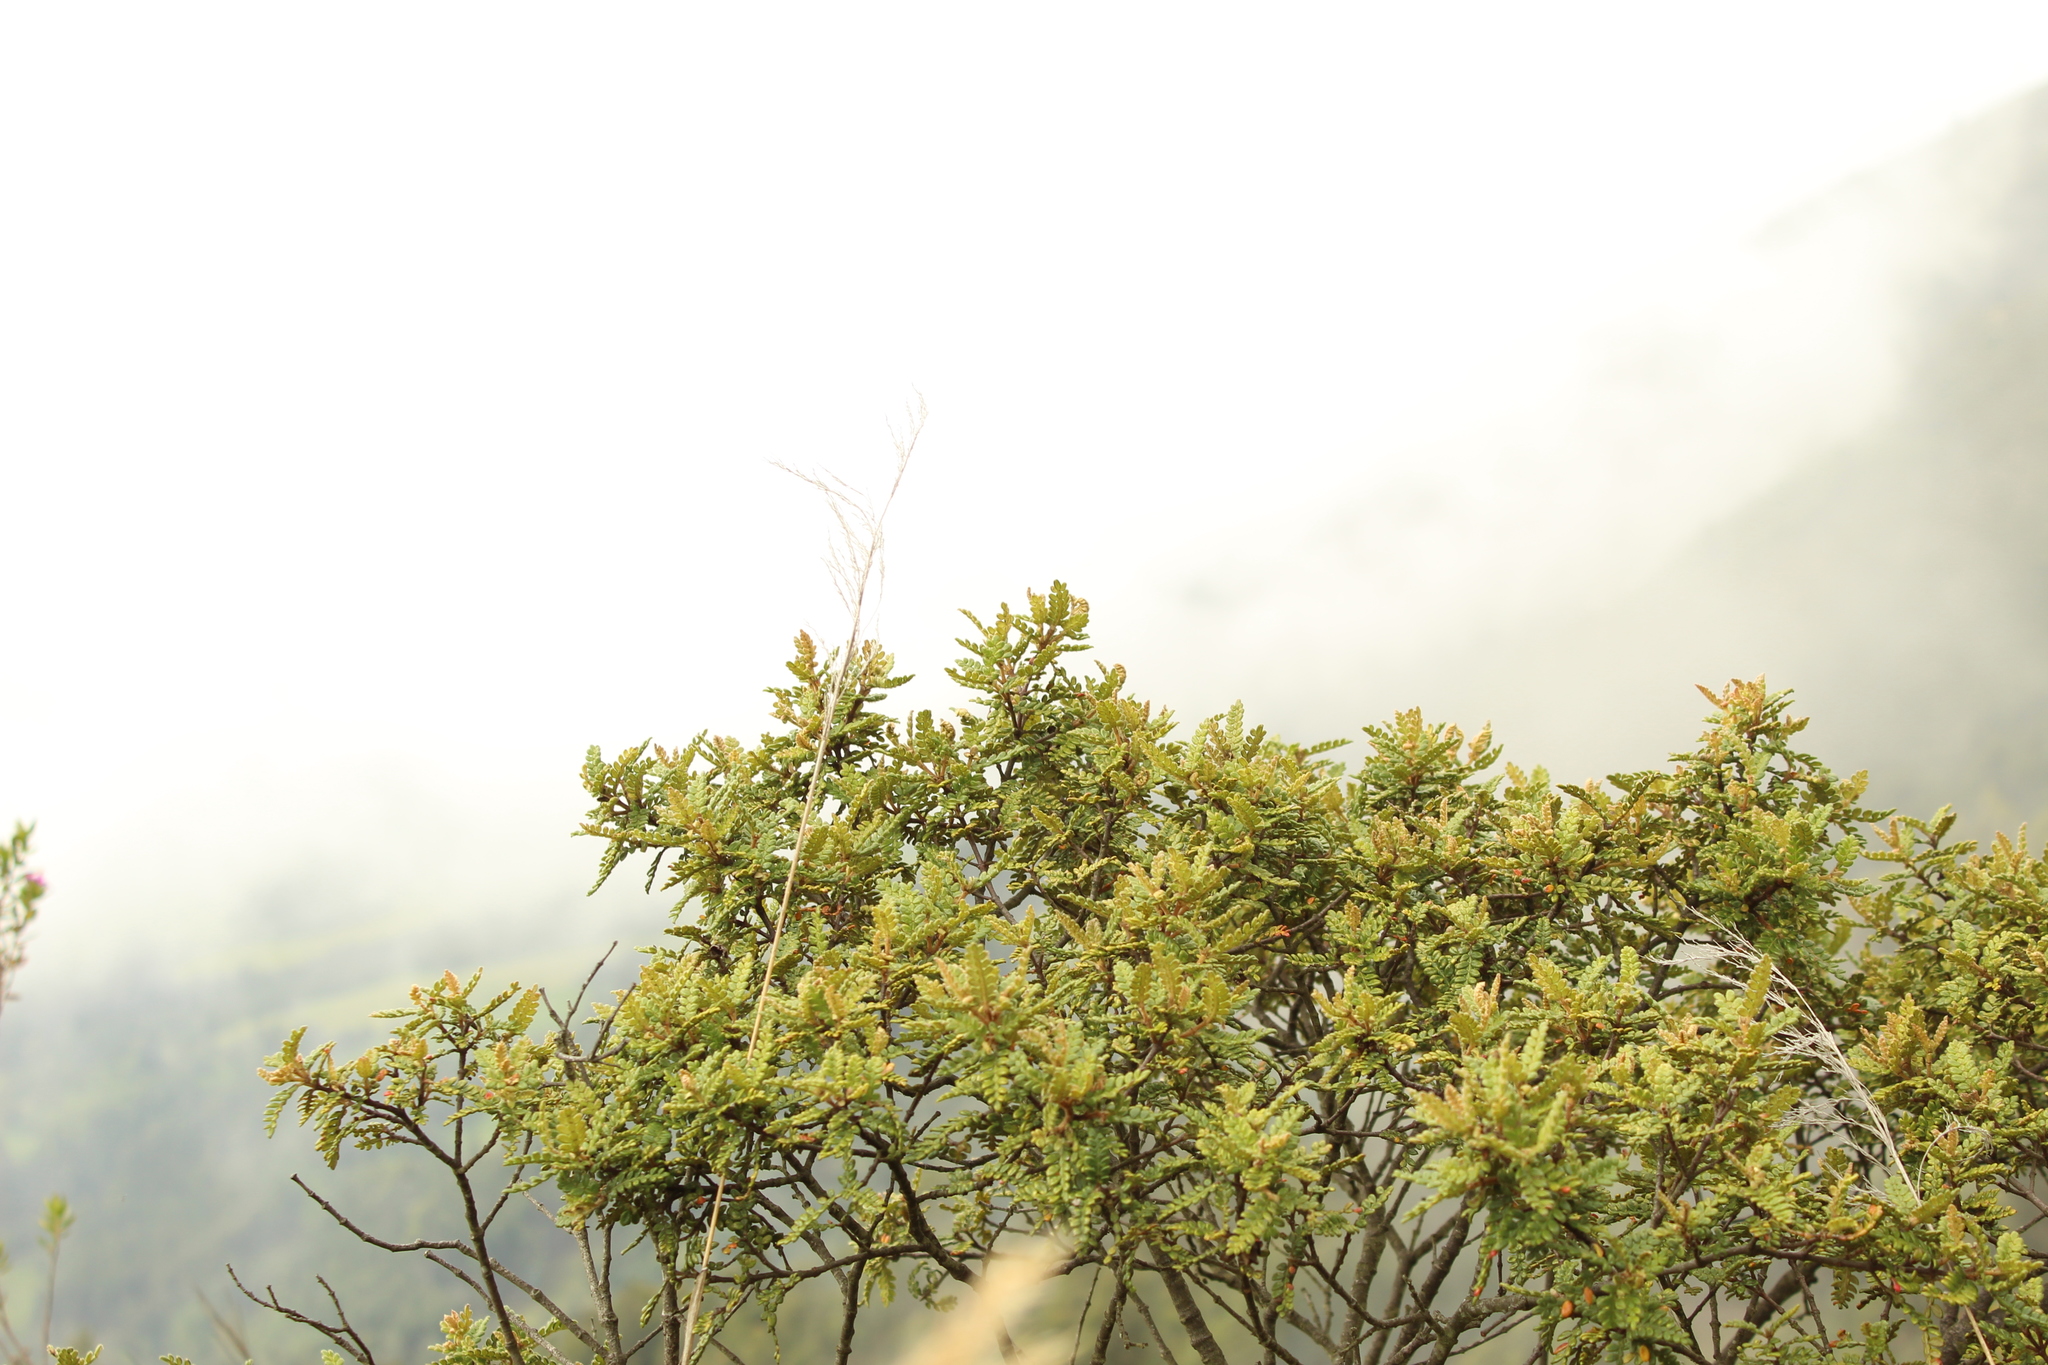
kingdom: Plantae
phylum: Tracheophyta
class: Magnoliopsida
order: Oxalidales
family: Cunoniaceae
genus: Weinmannia
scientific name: Weinmannia tomentosa
